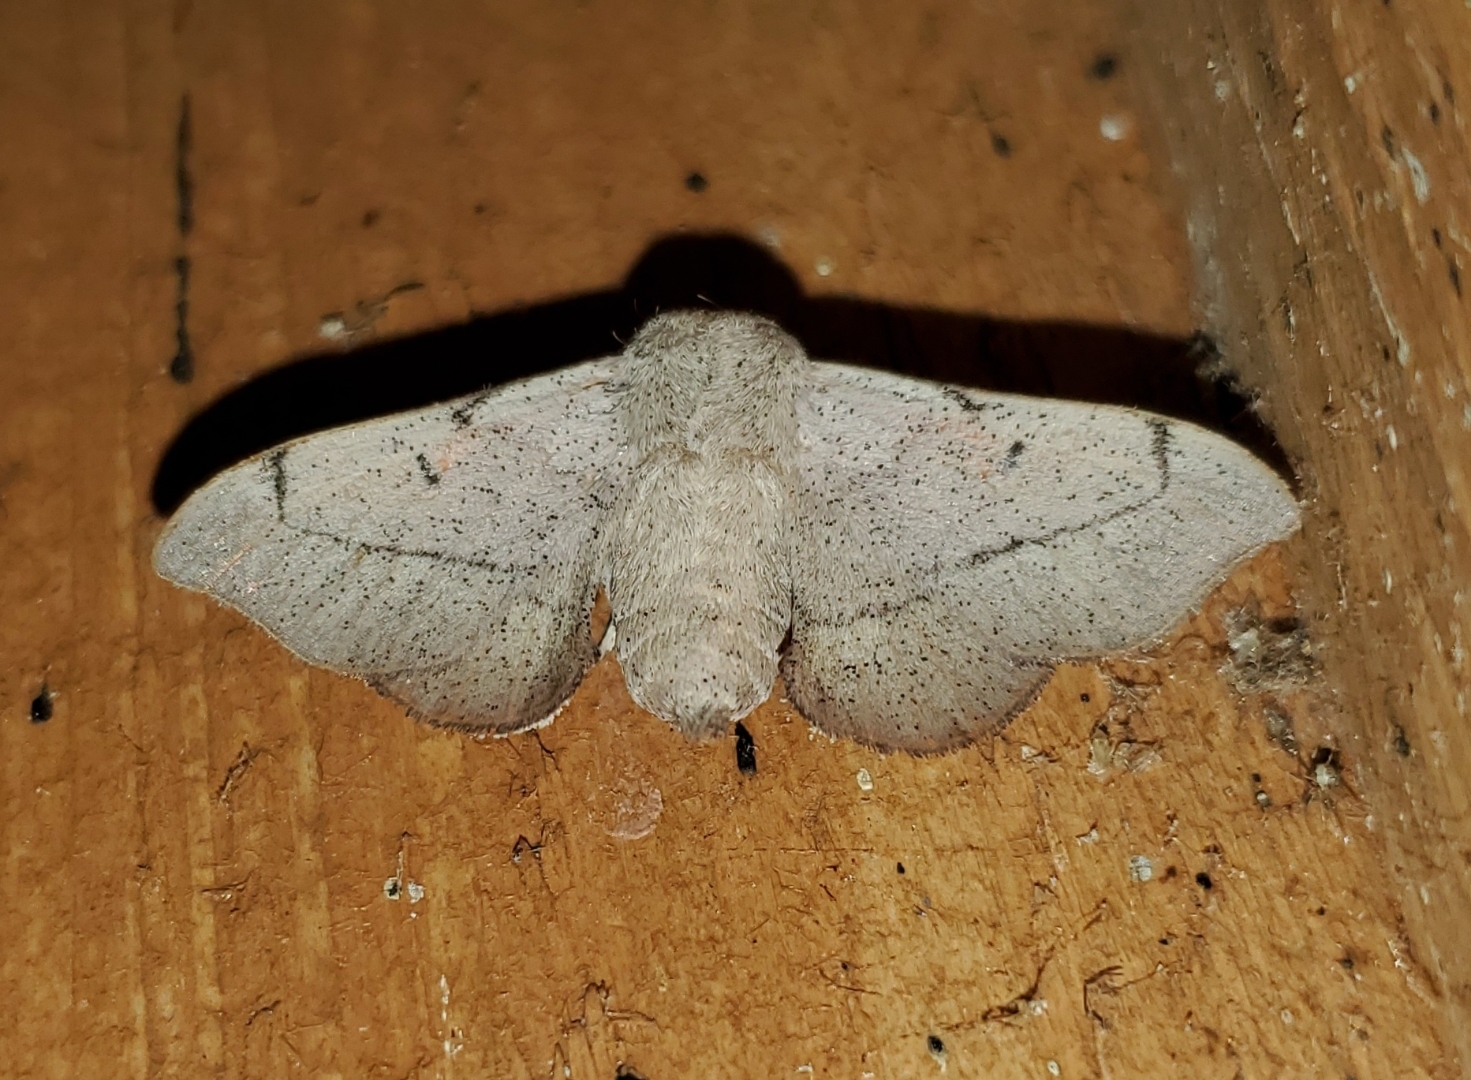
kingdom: Animalia
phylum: Arthropoda
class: Insecta
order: Lepidoptera
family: Mimallonidae
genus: Cicinnus
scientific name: Cicinnus melsheimeri
